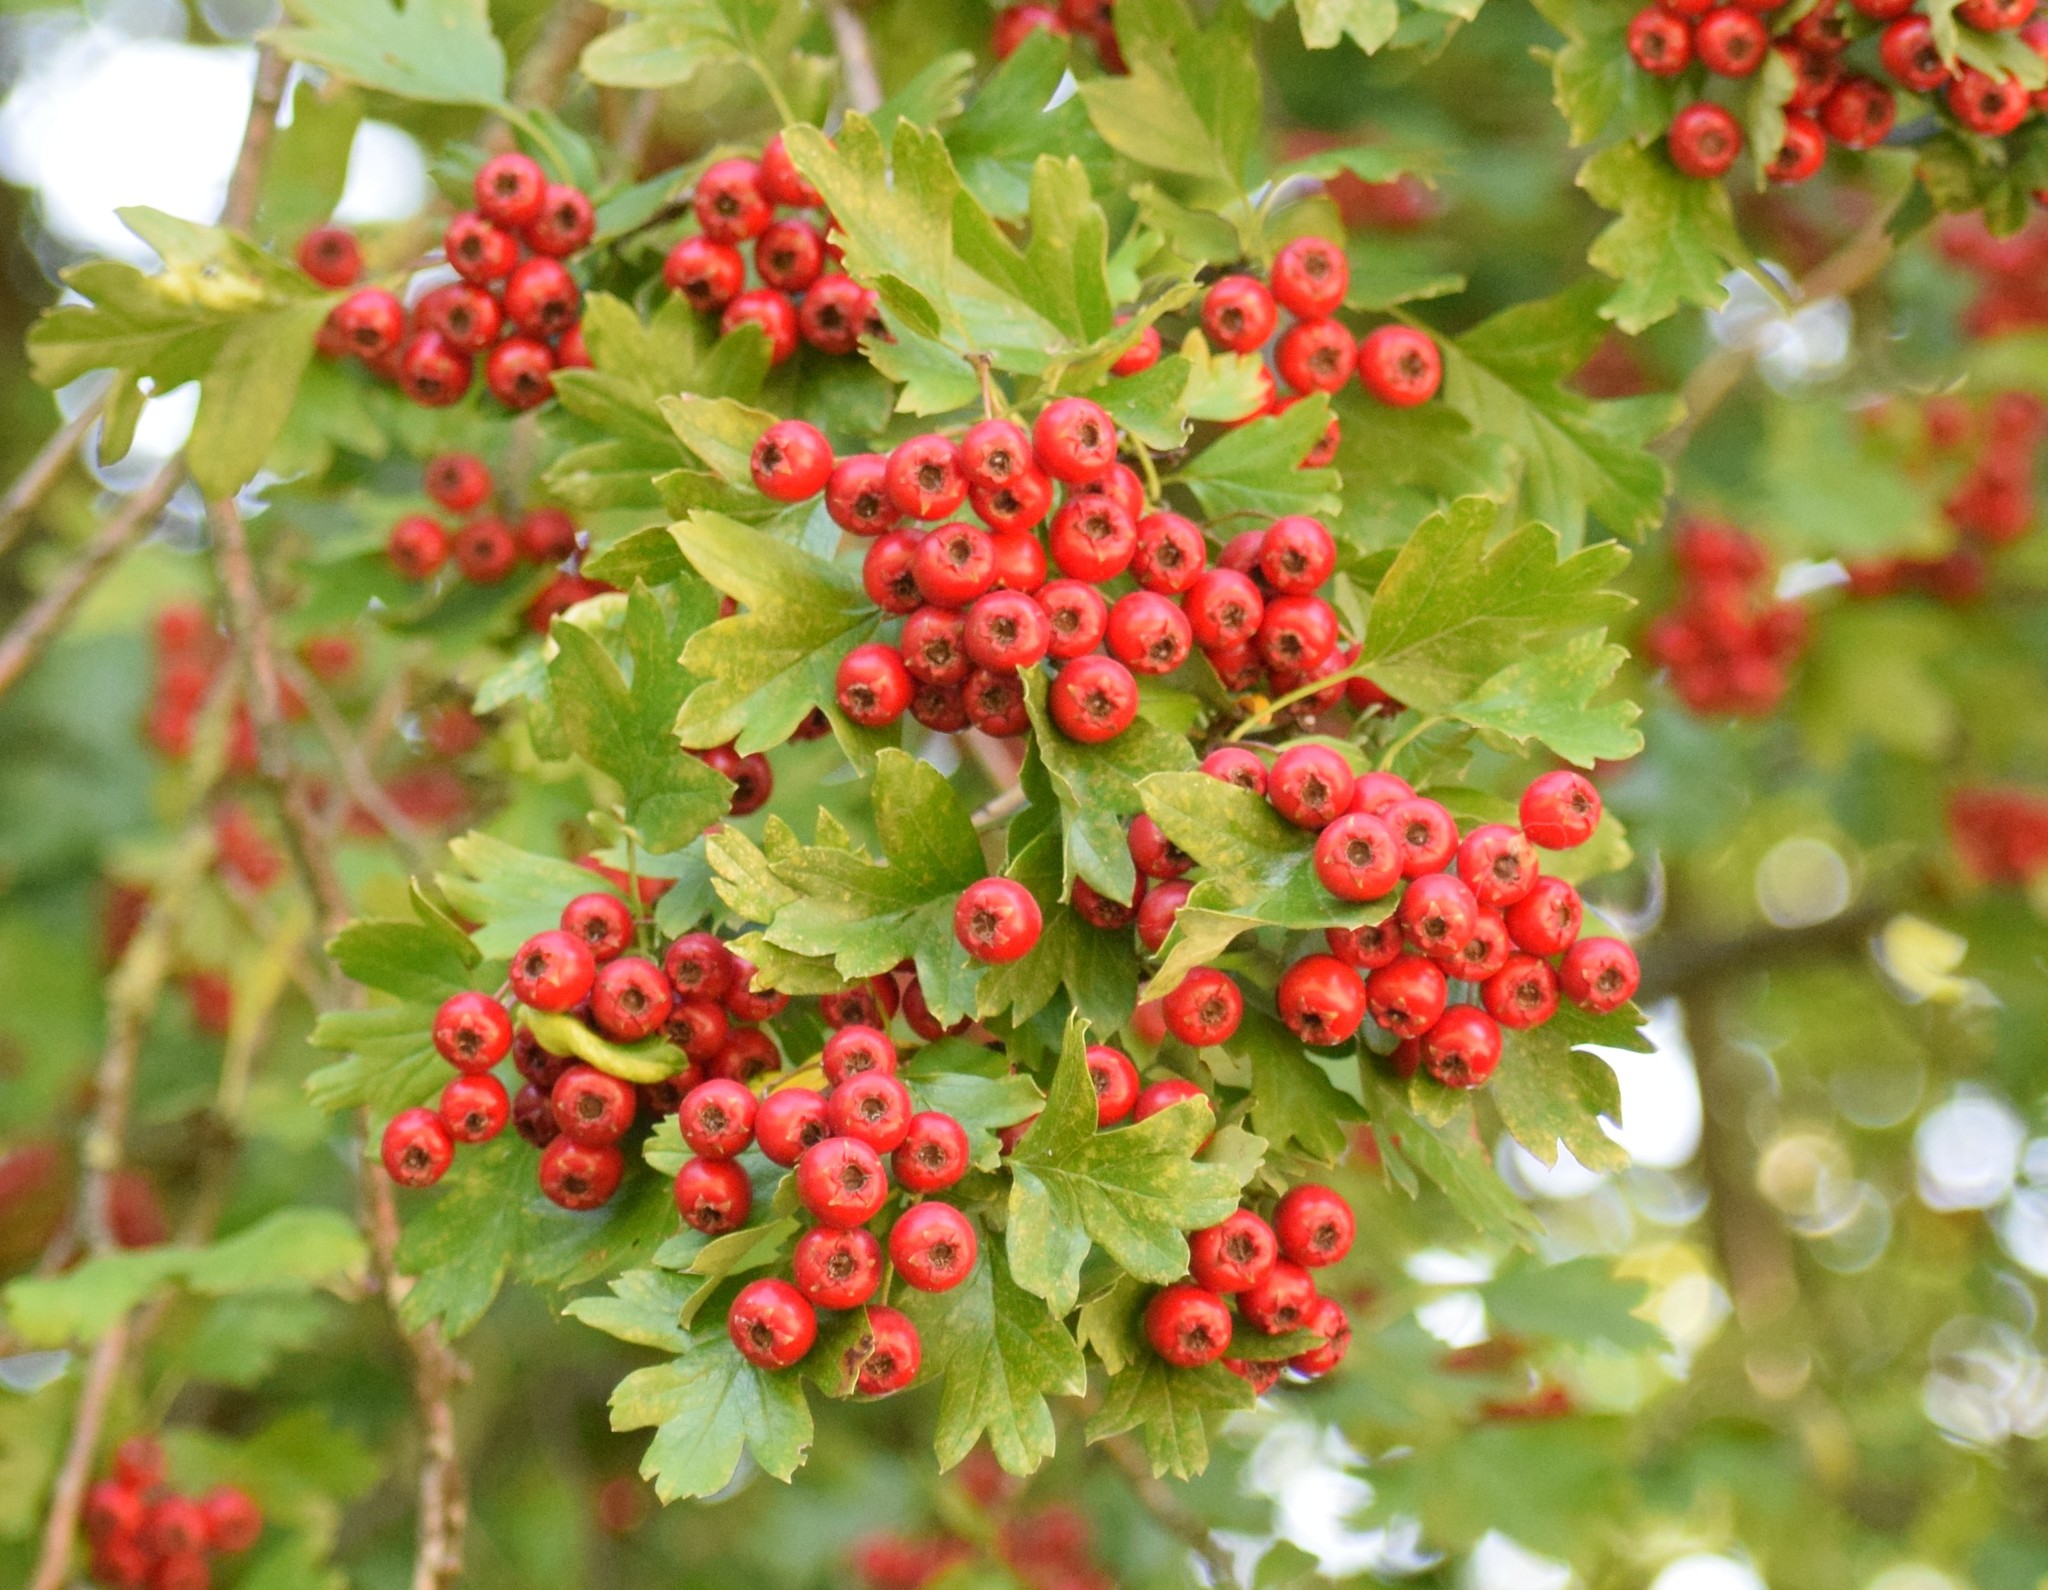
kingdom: Plantae
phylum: Tracheophyta
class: Magnoliopsida
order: Rosales
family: Rosaceae
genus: Crataegus
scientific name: Crataegus monogyna
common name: Hawthorn
